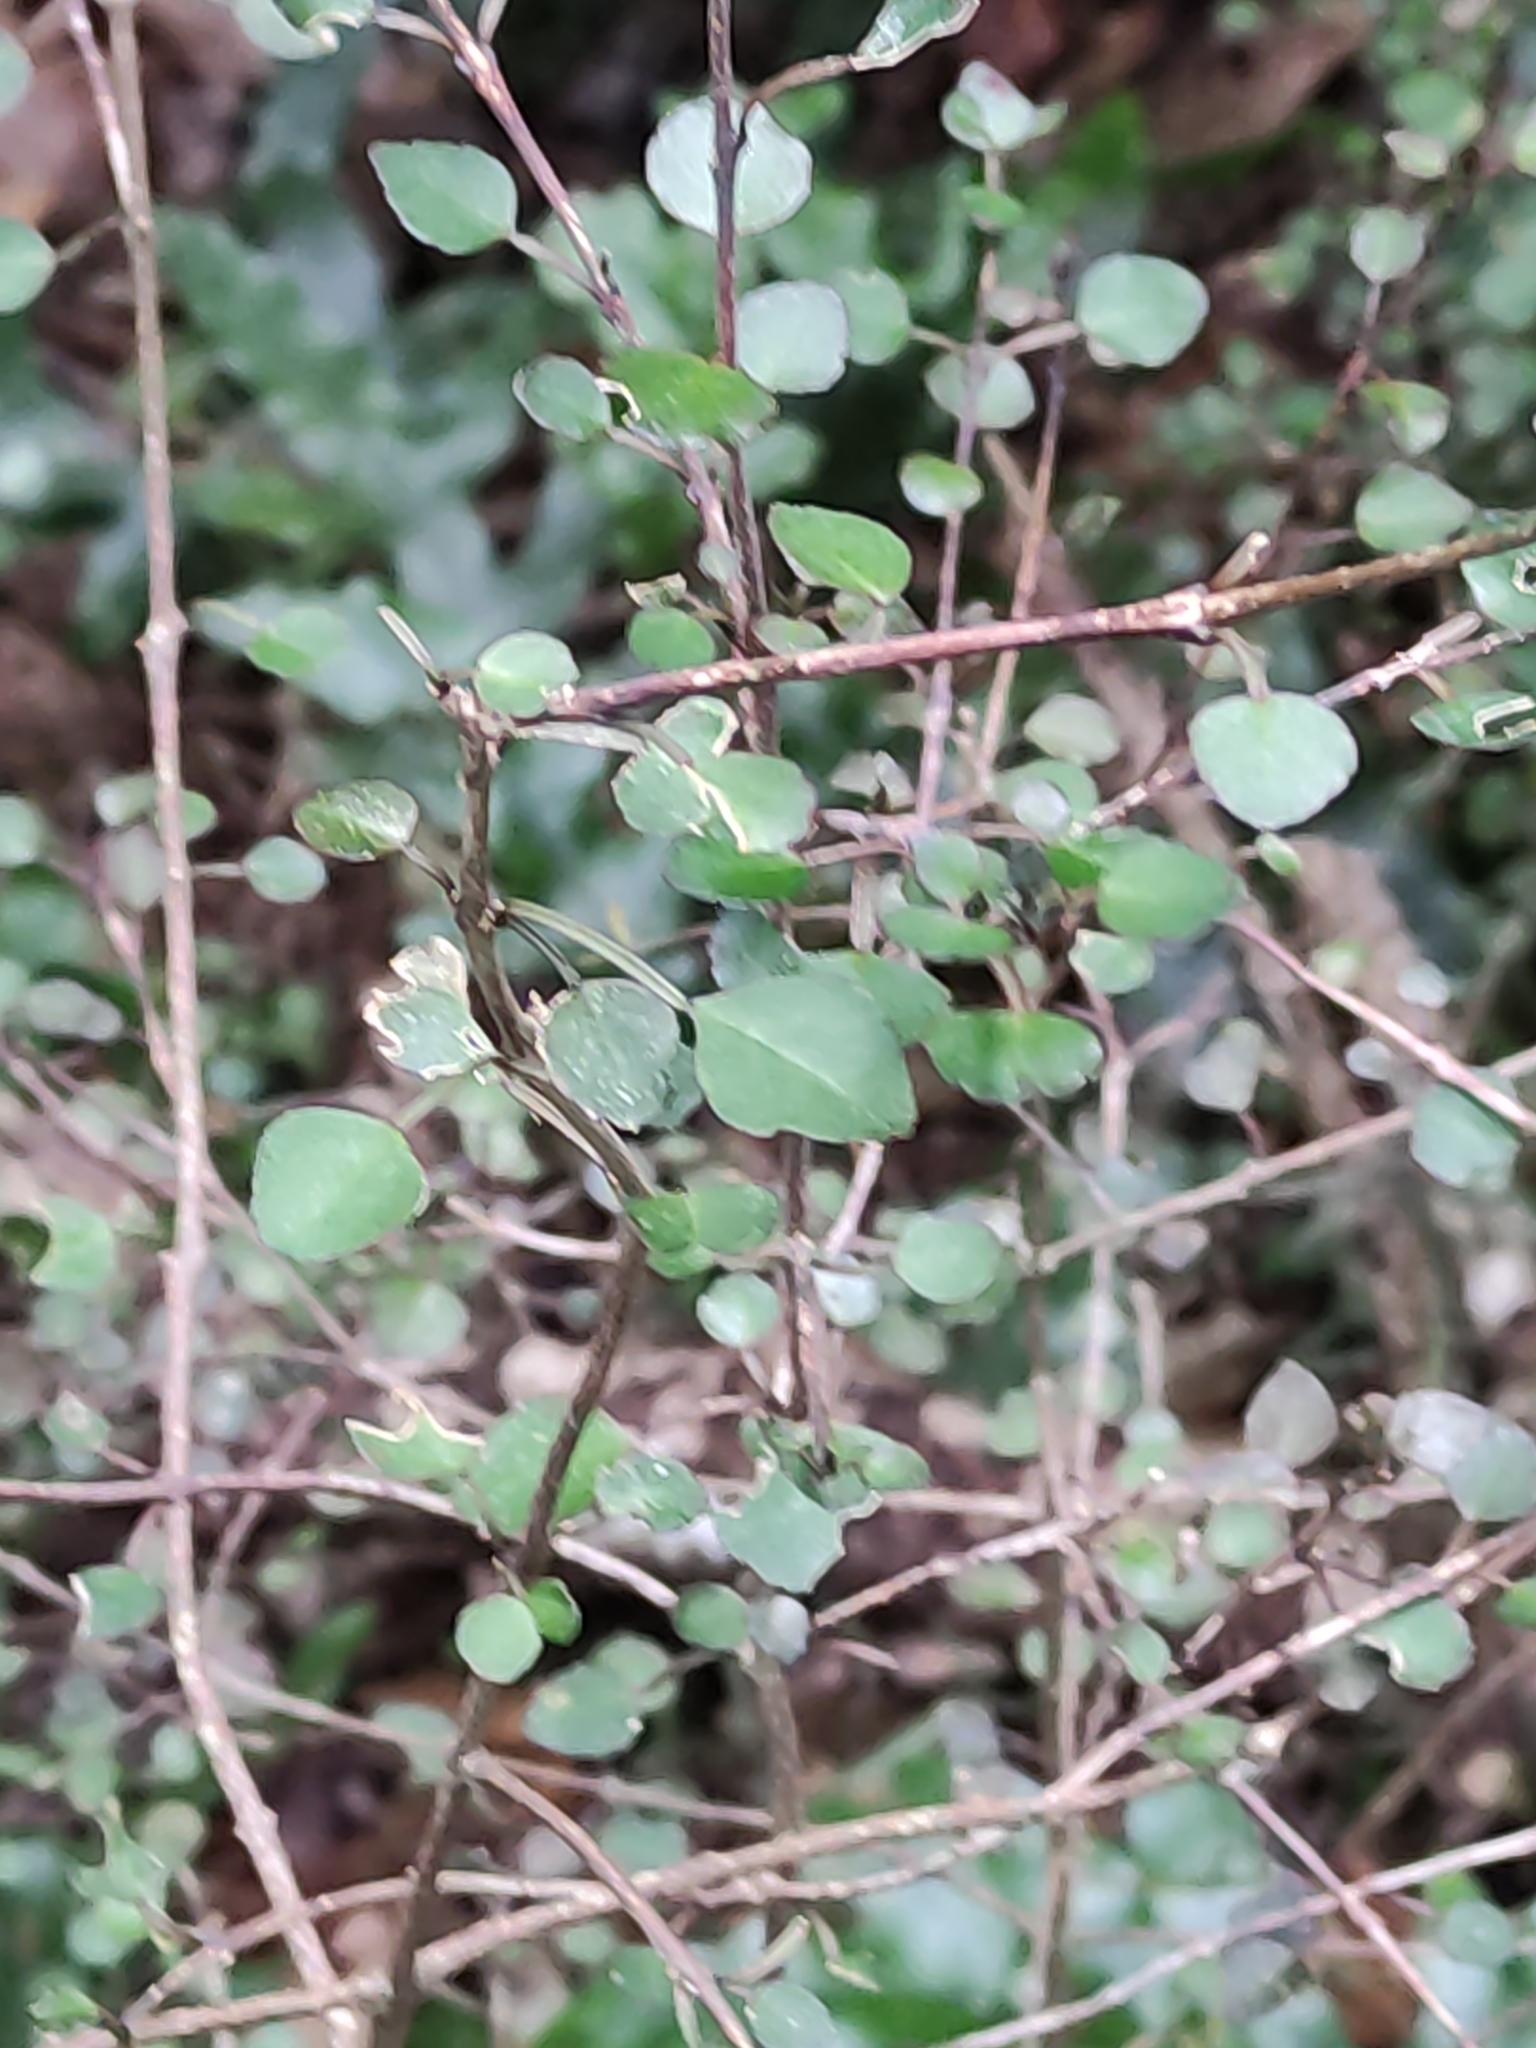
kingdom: Plantae
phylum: Tracheophyta
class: Magnoliopsida
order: Sapindales
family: Rutaceae
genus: Melicope
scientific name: Melicope simplex
